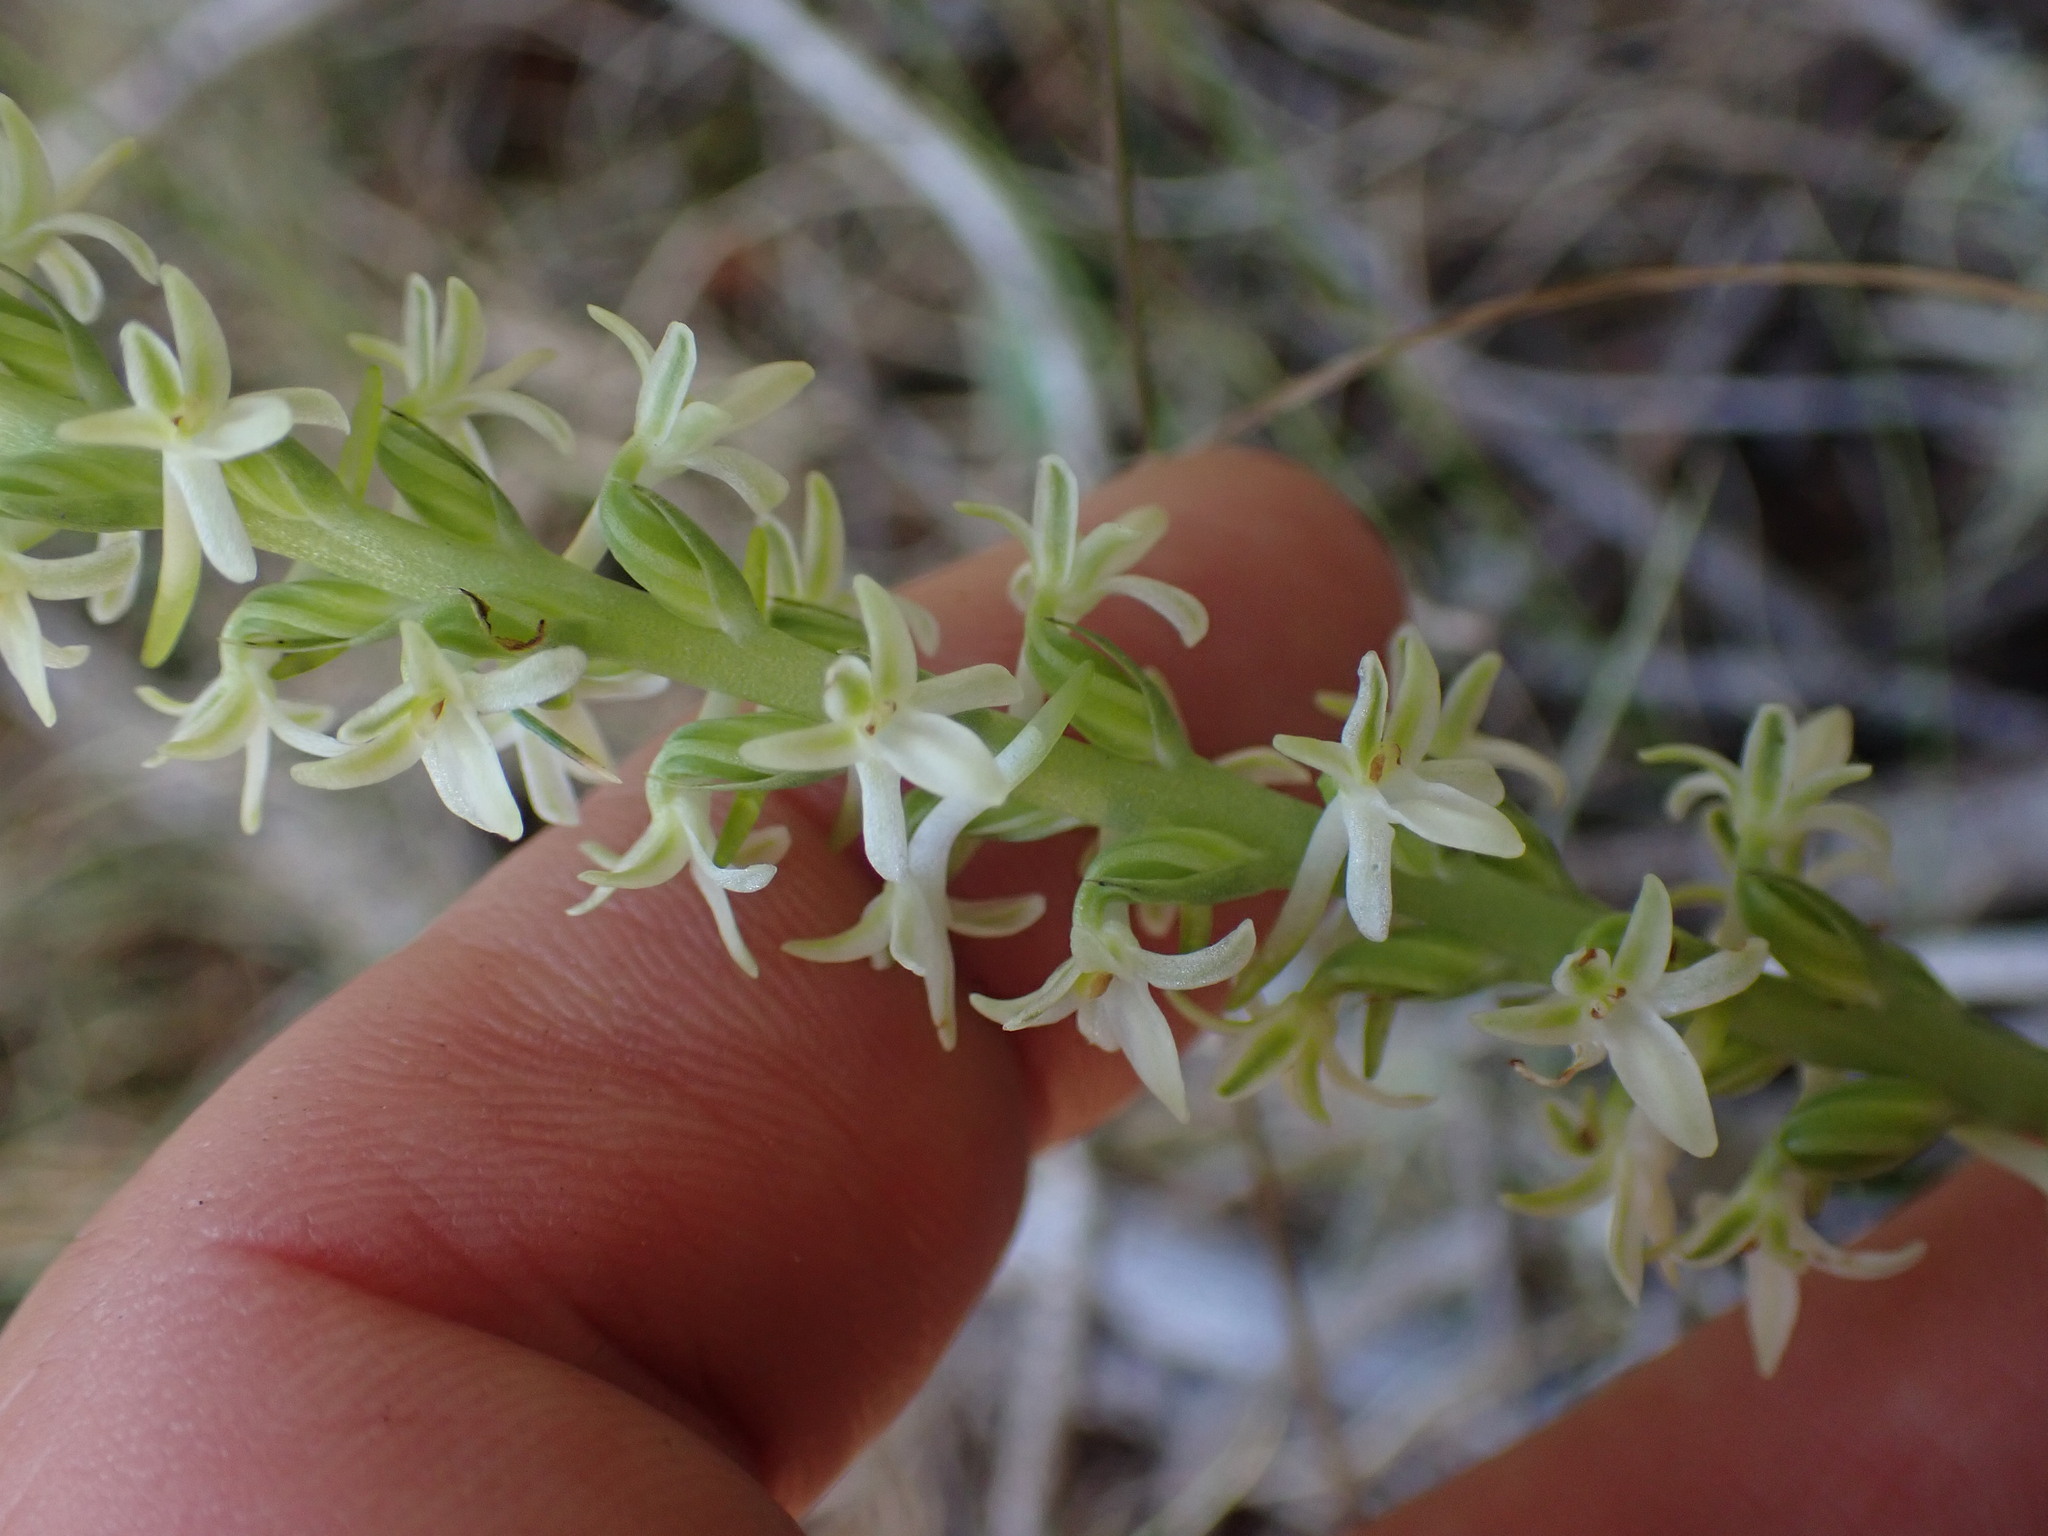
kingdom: Plantae
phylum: Tracheophyta
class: Liliopsida
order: Asparagales
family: Orchidaceae
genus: Platanthera
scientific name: Platanthera transversa
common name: Royal rein orchid
